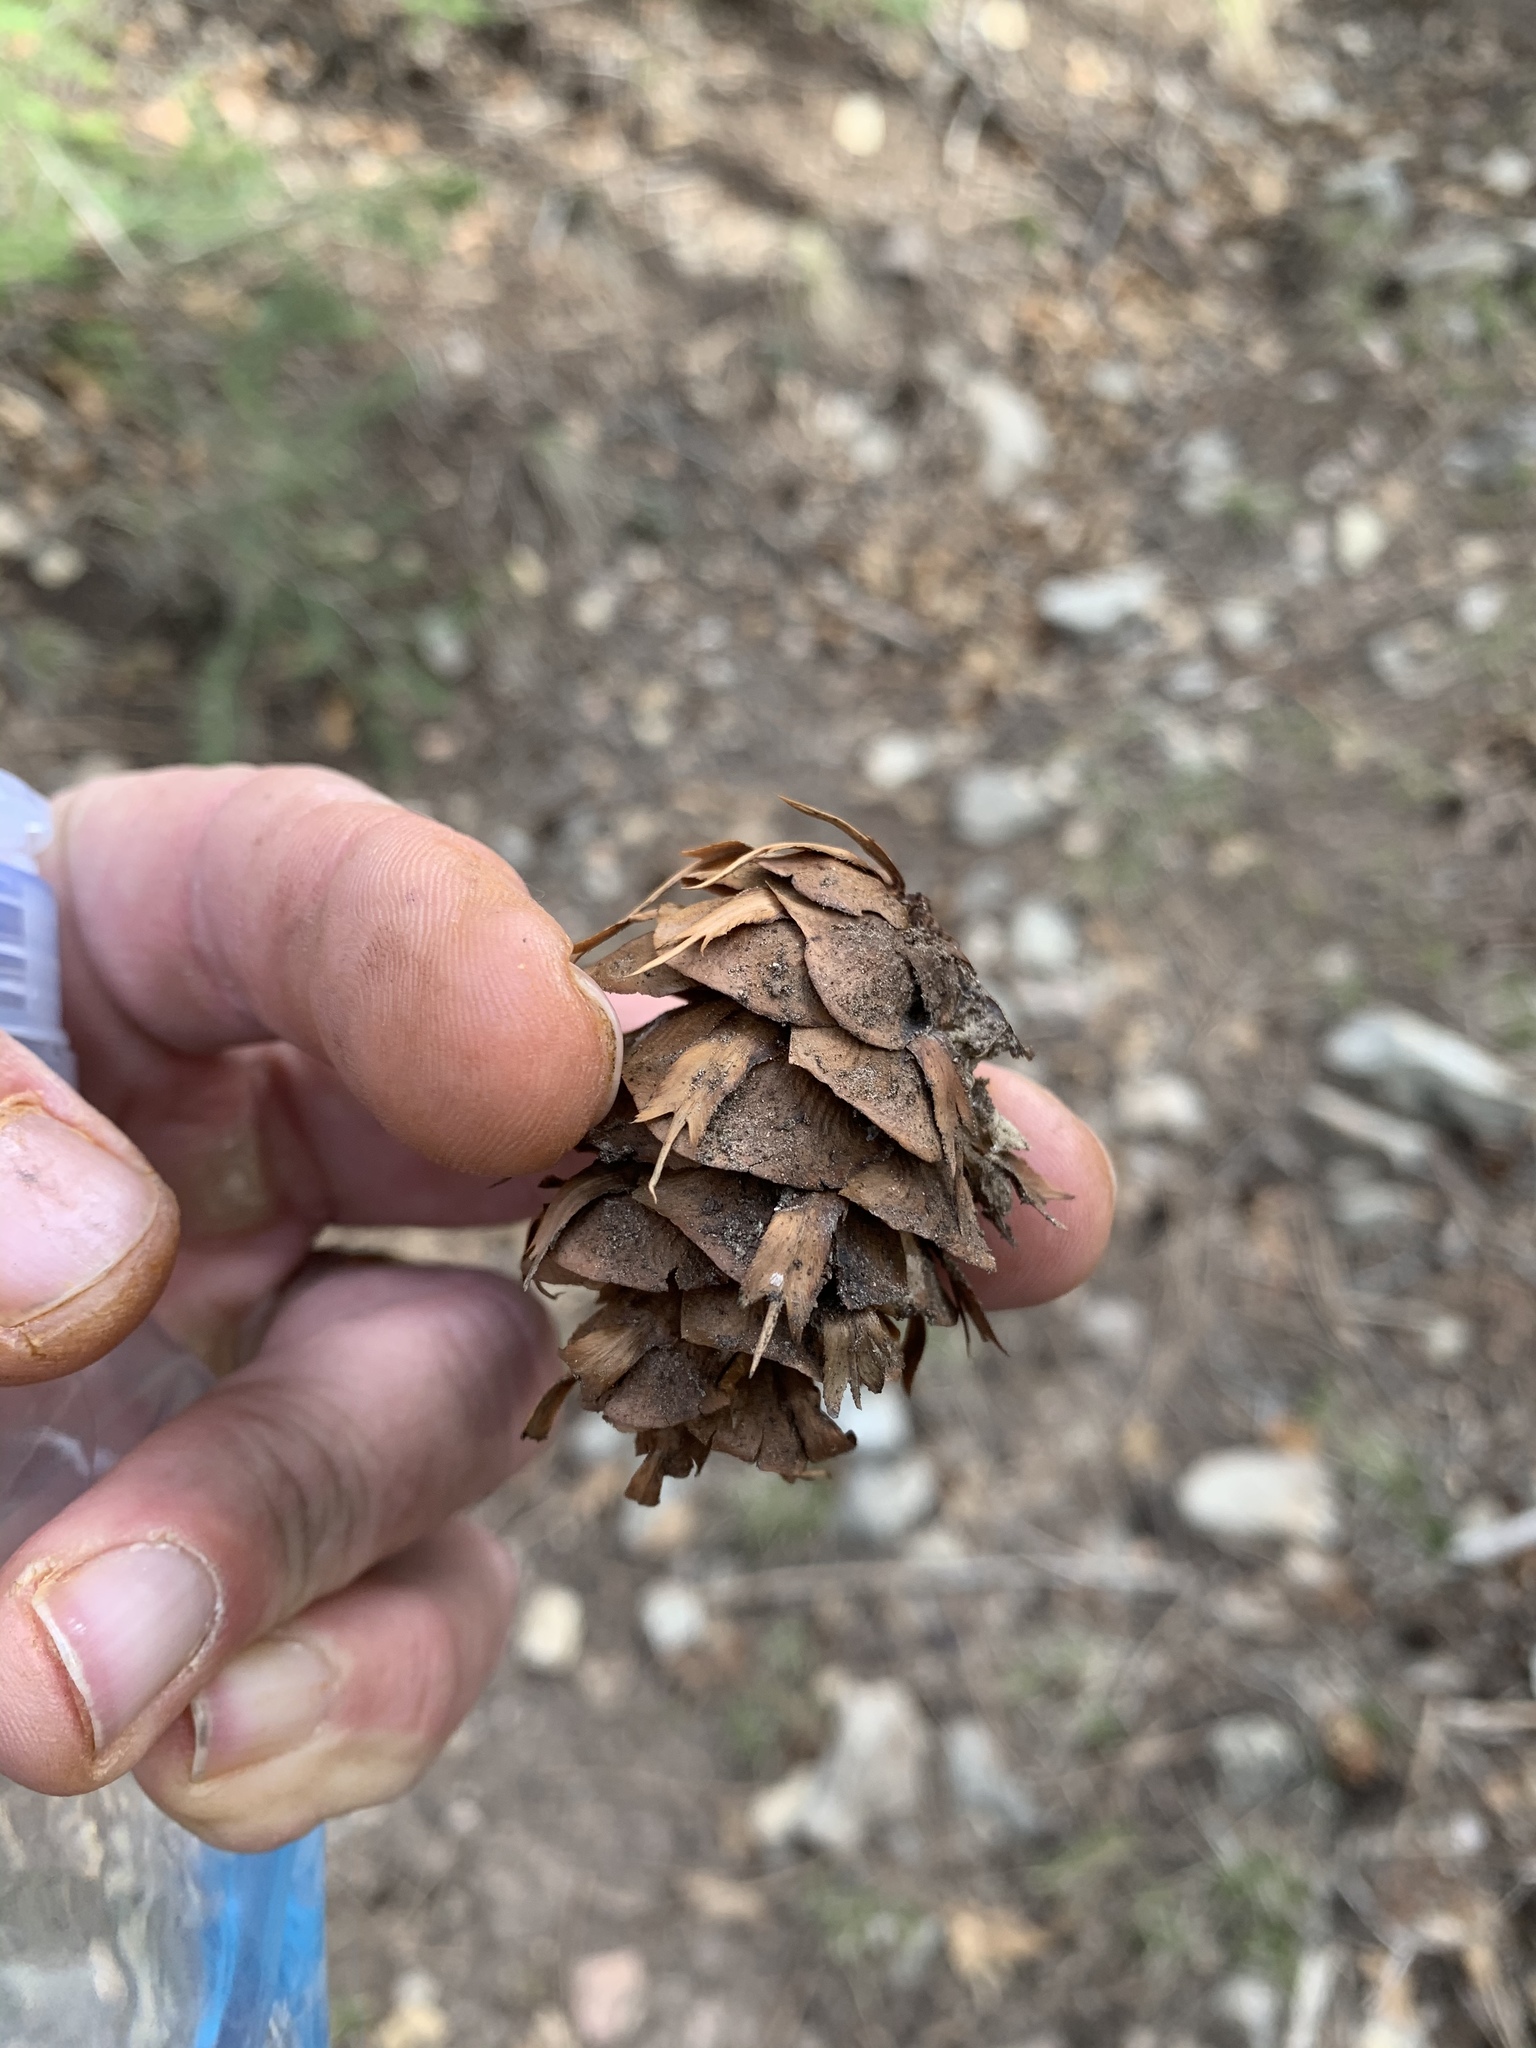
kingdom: Plantae
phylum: Tracheophyta
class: Pinopsida
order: Pinales
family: Pinaceae
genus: Pseudotsuga
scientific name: Pseudotsuga menziesii
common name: Douglas fir
